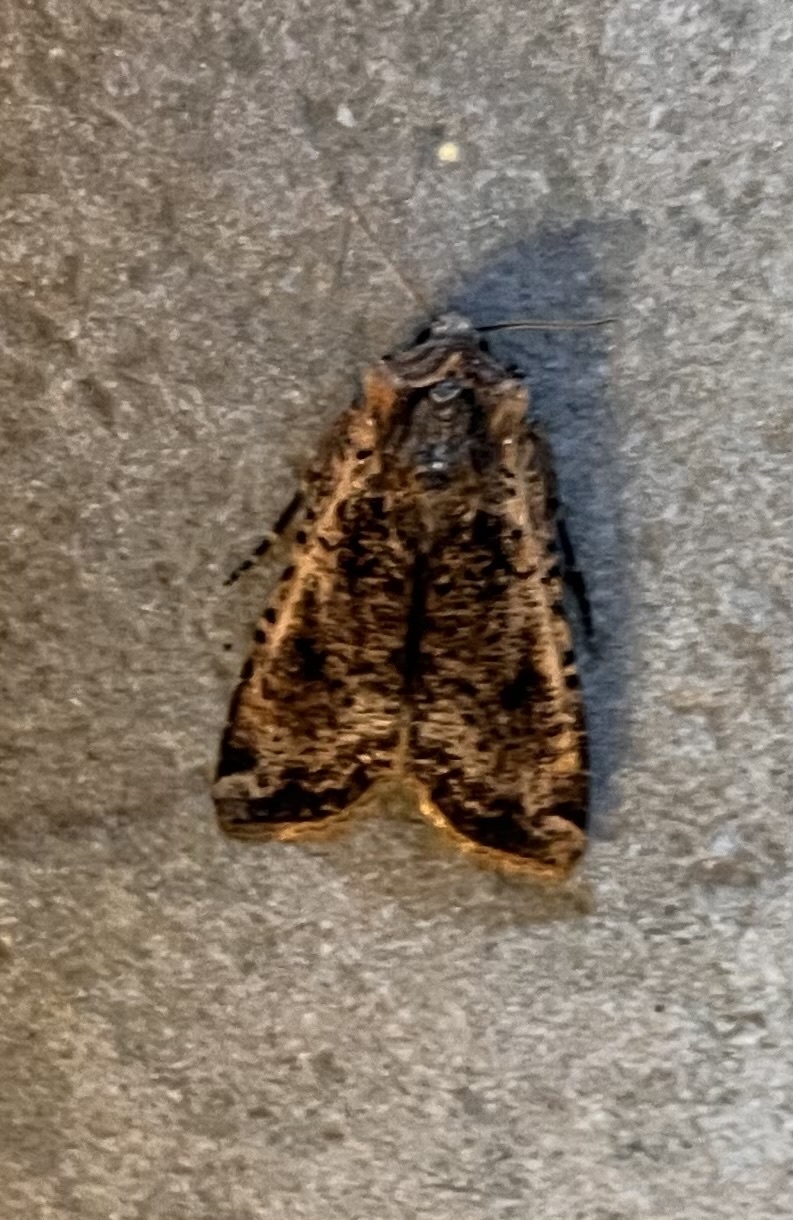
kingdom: Animalia
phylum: Arthropoda
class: Insecta
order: Lepidoptera
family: Noctuidae
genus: Peridroma
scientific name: Peridroma saucia
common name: Pearly underwing
